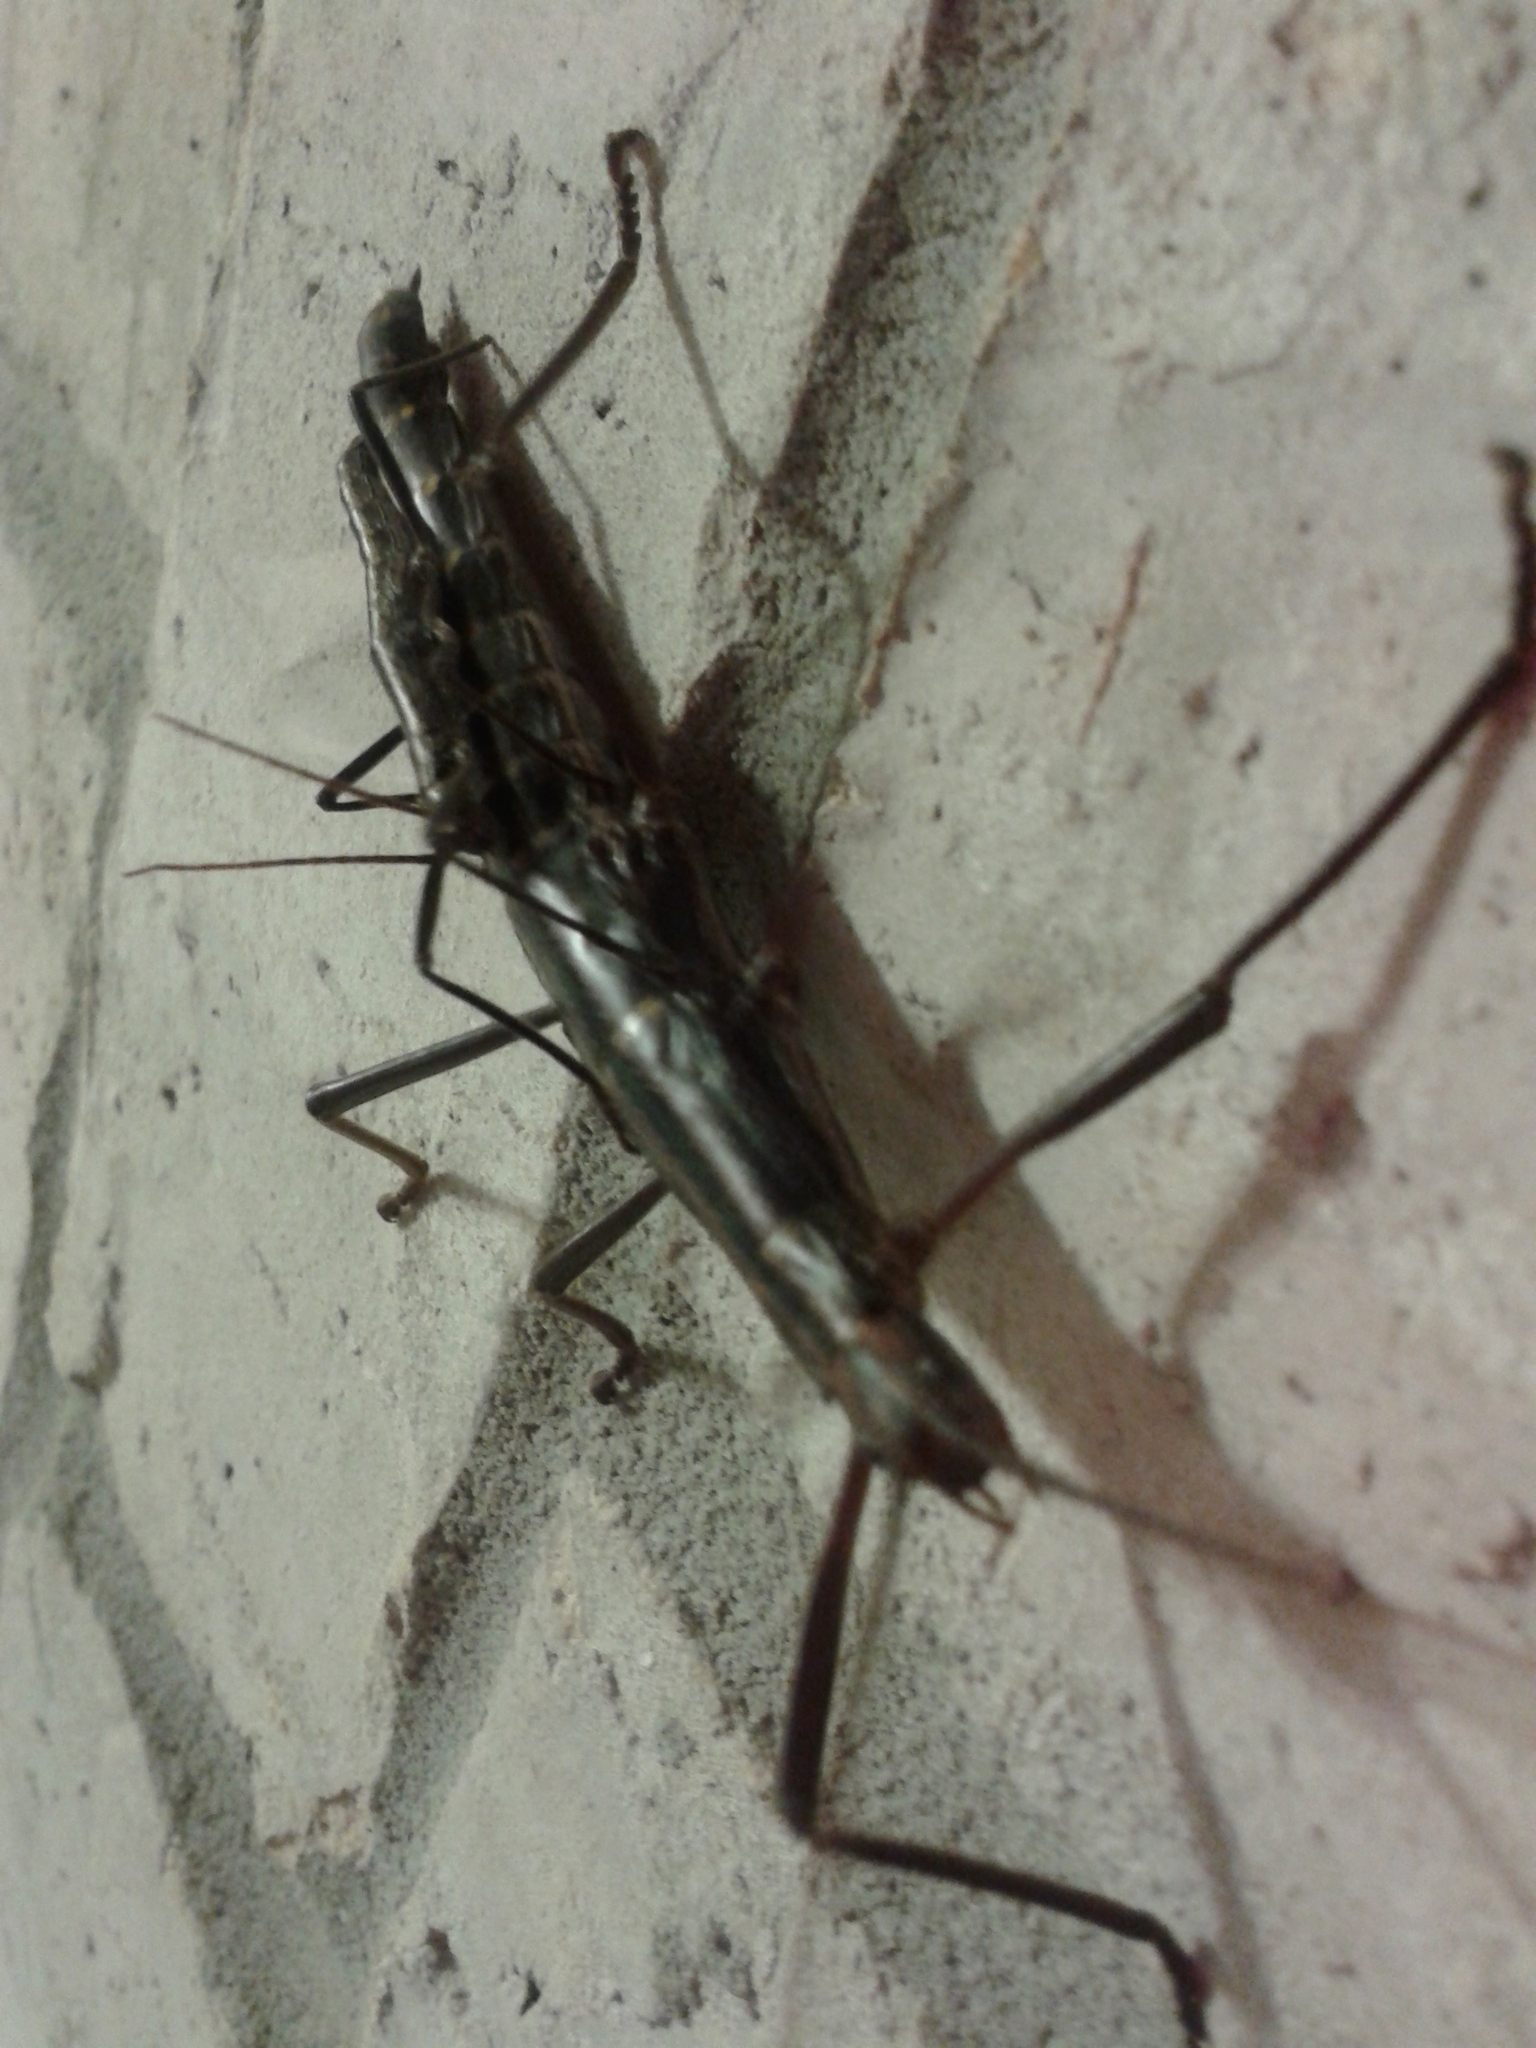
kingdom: Animalia
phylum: Arthropoda
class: Insecta
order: Phasmida
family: Pseudophasmatidae
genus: Anisomorpha
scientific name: Anisomorpha buprestoides
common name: Florida stick insect
